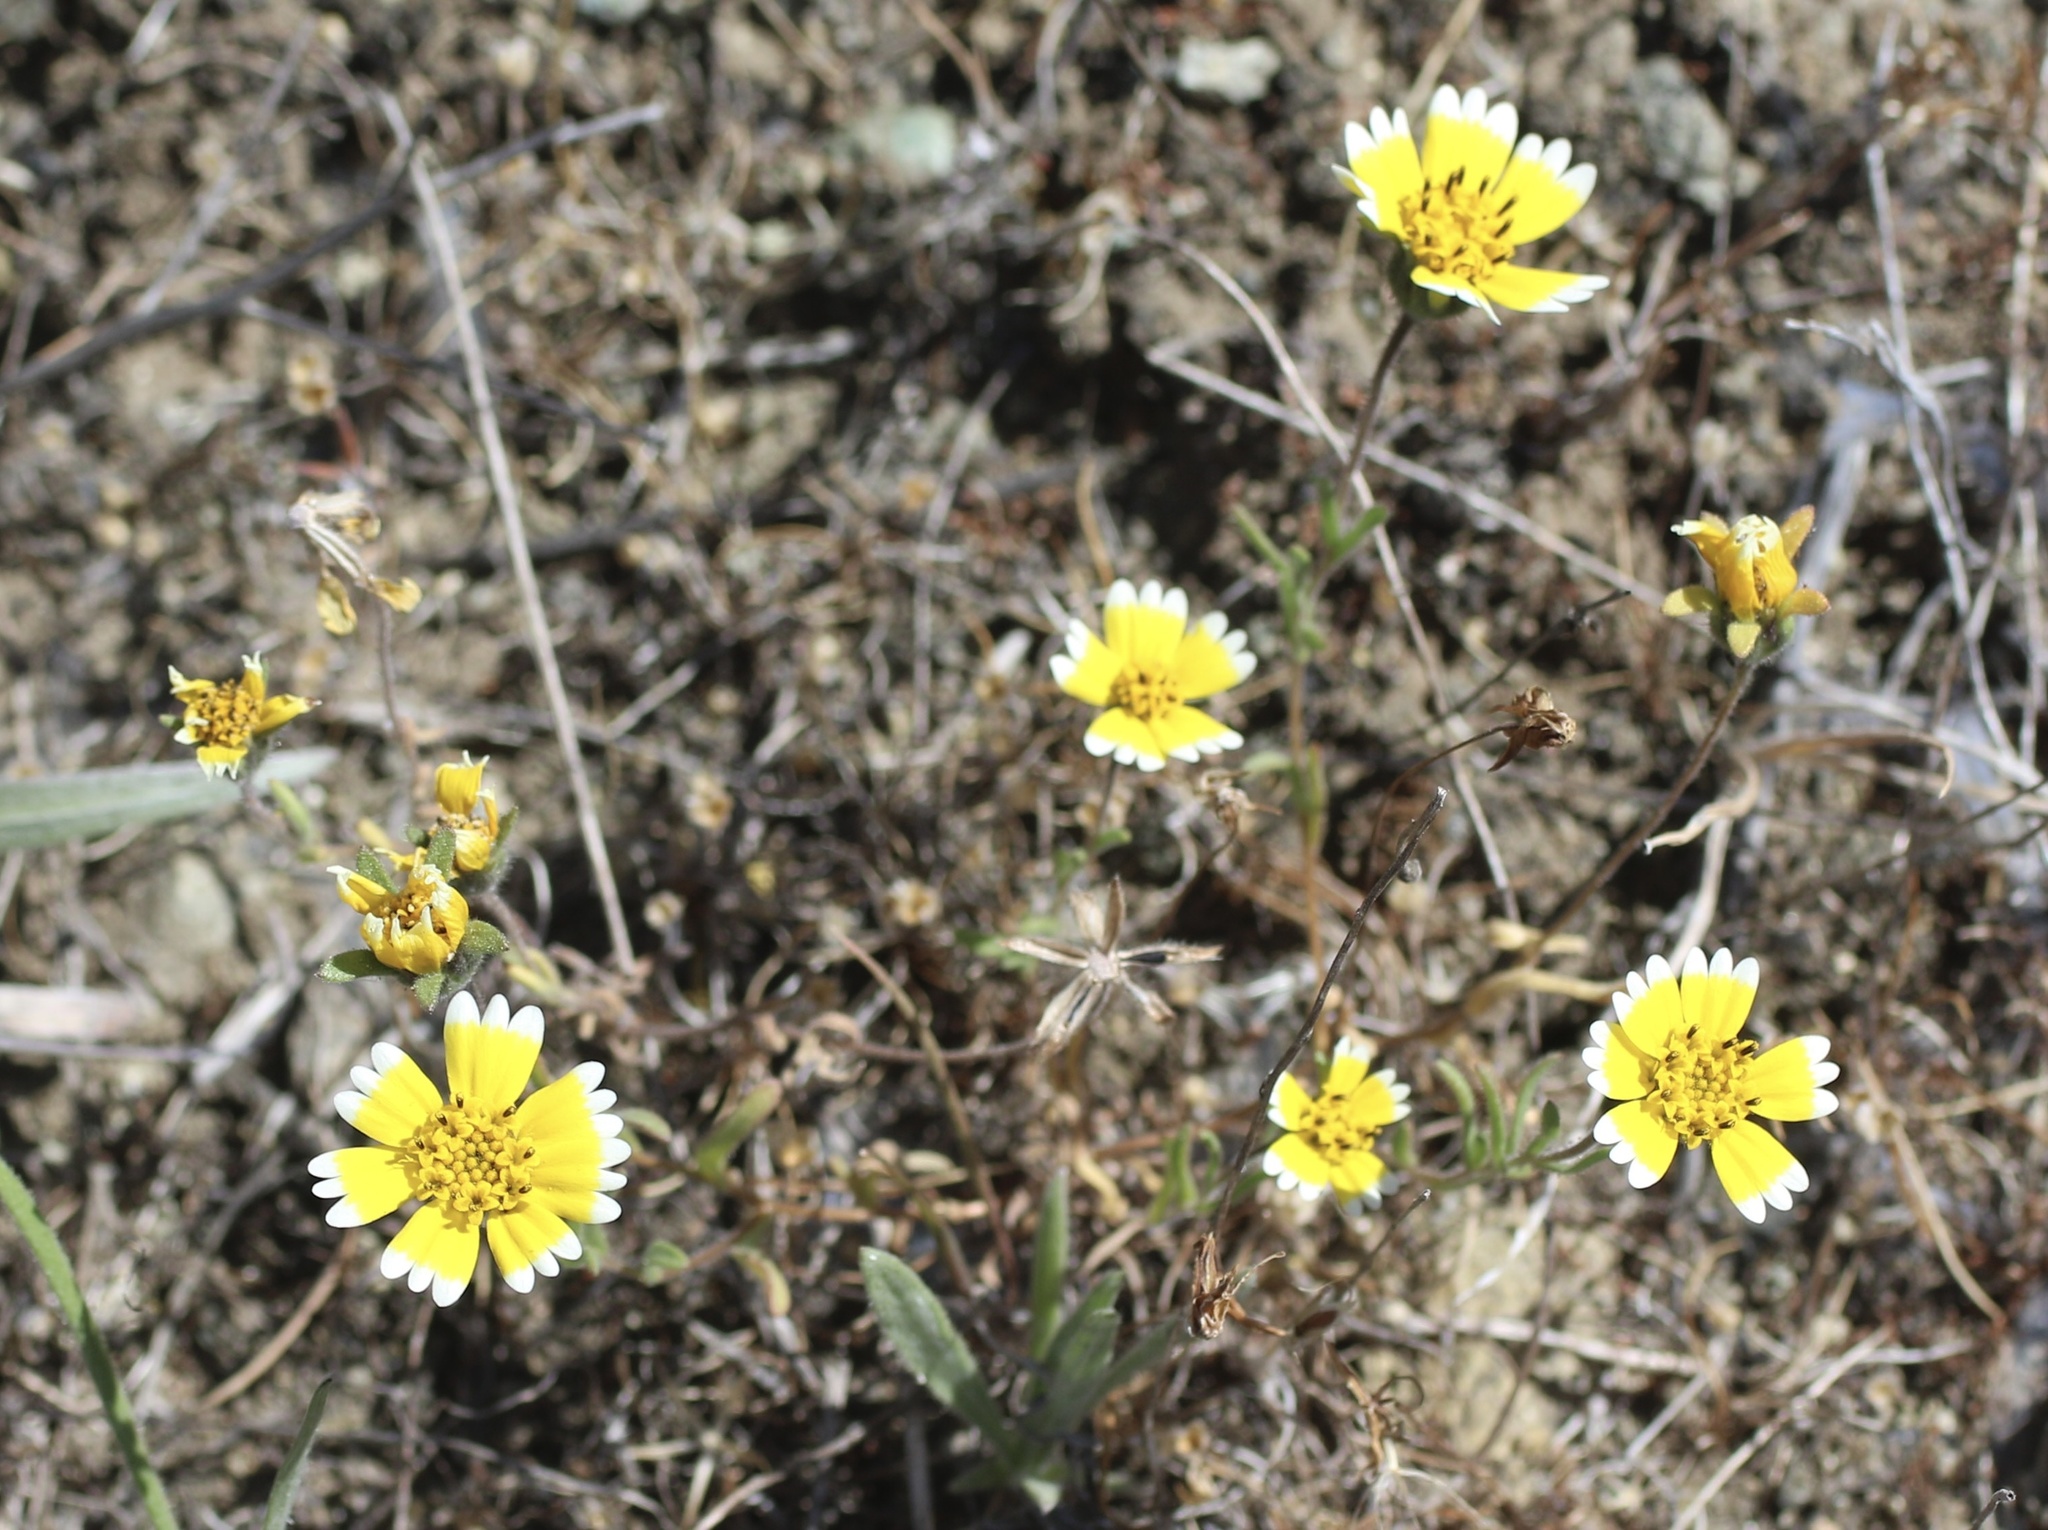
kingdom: Plantae
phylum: Tracheophyta
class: Magnoliopsida
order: Asterales
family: Asteraceae
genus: Layia
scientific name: Layia platyglossa
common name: Tidy-tips
